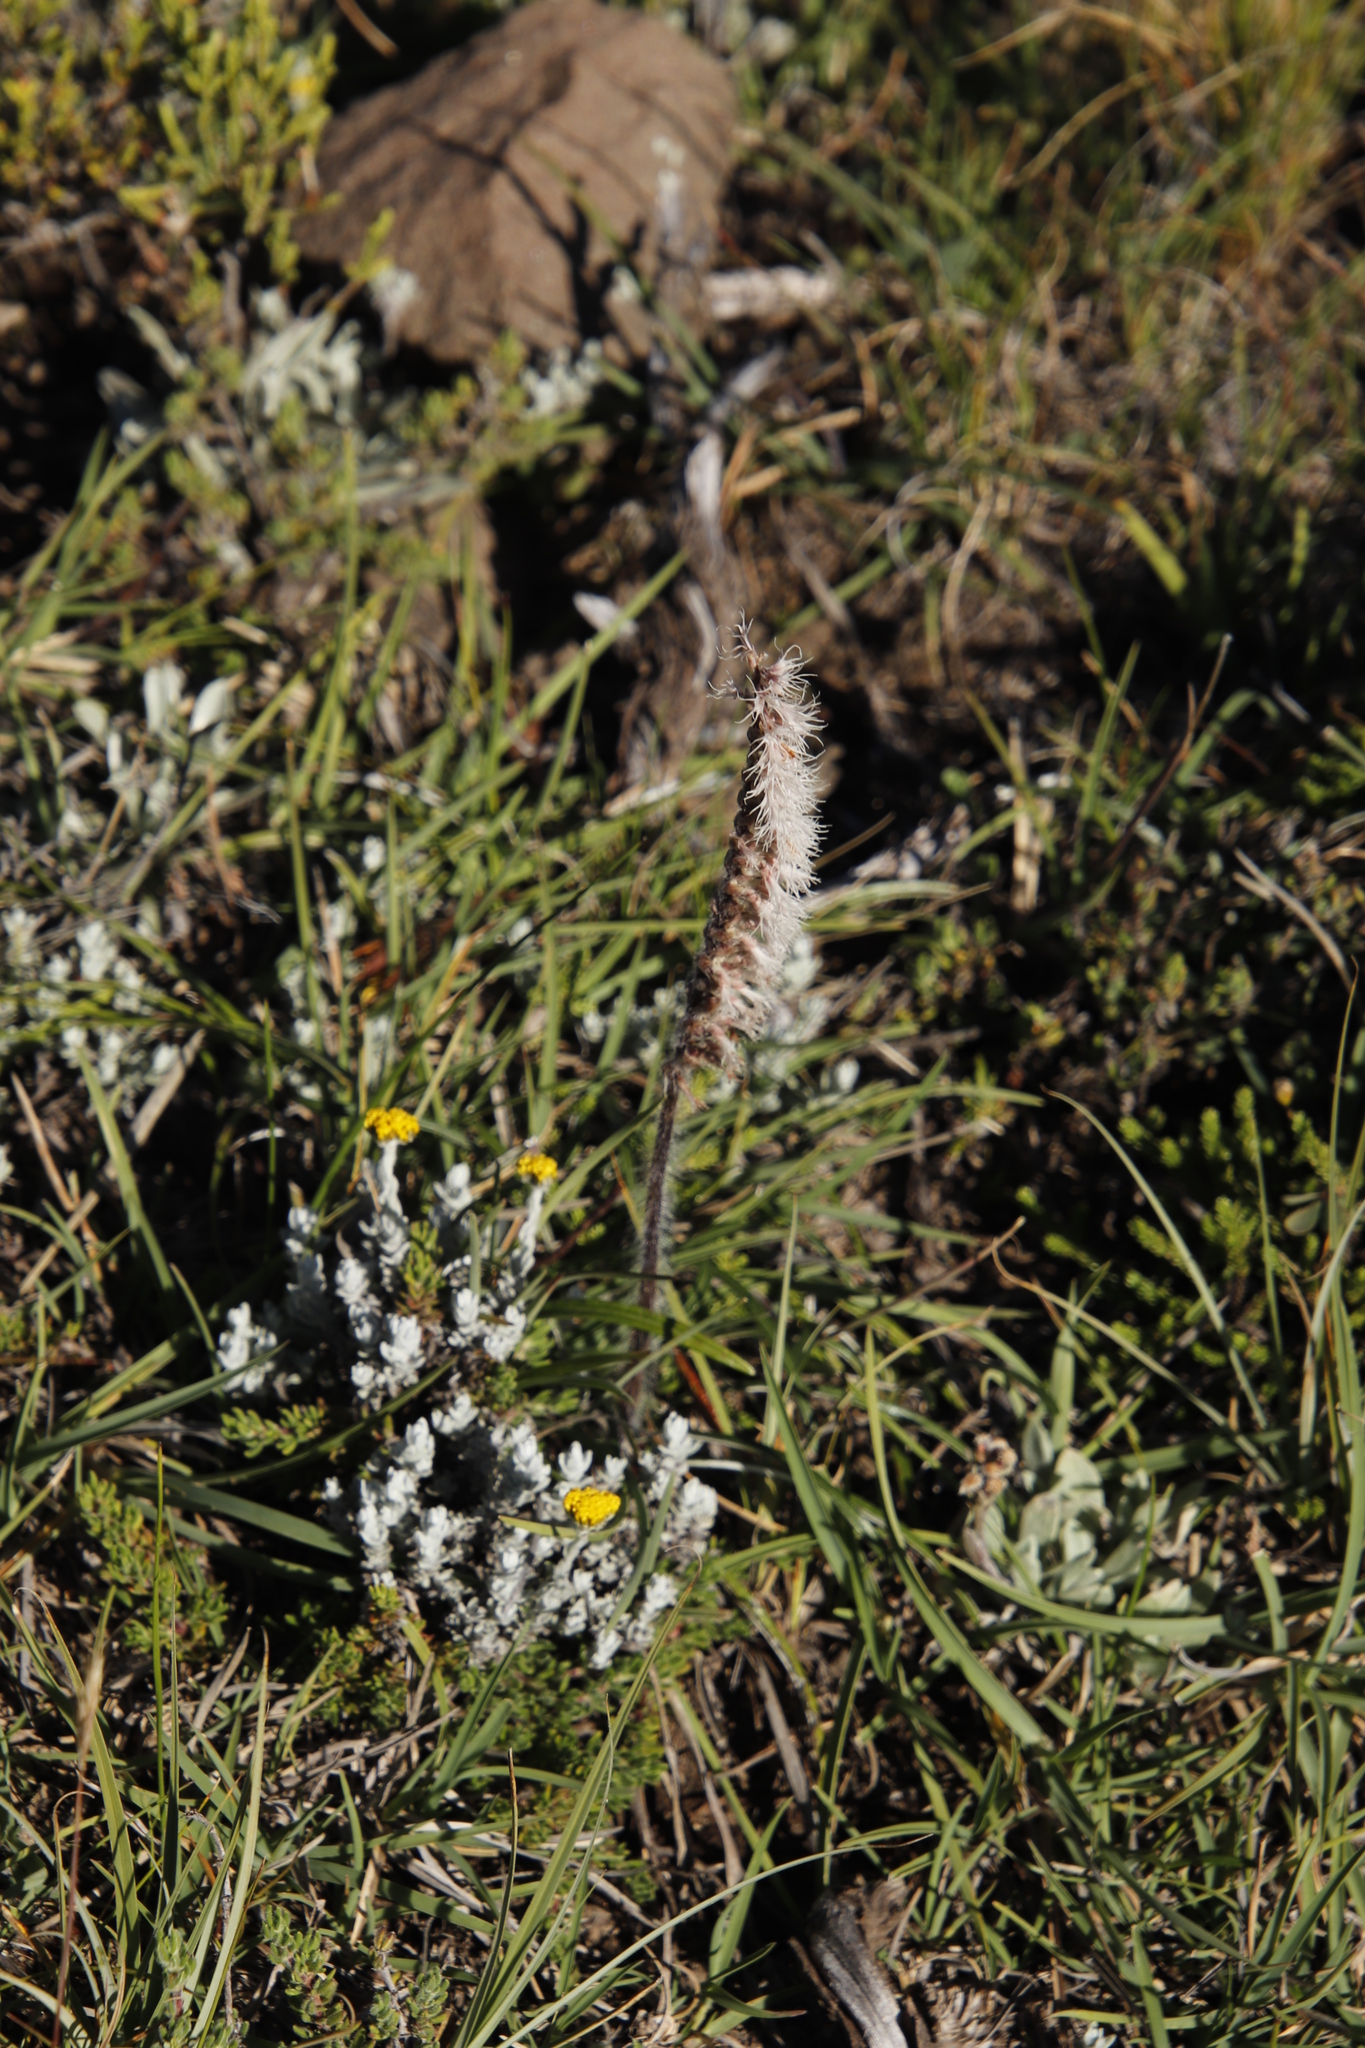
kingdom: Plantae
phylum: Tracheophyta
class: Liliopsida
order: Asparagales
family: Orchidaceae
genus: Holothrix
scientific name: Holothrix scopularia
